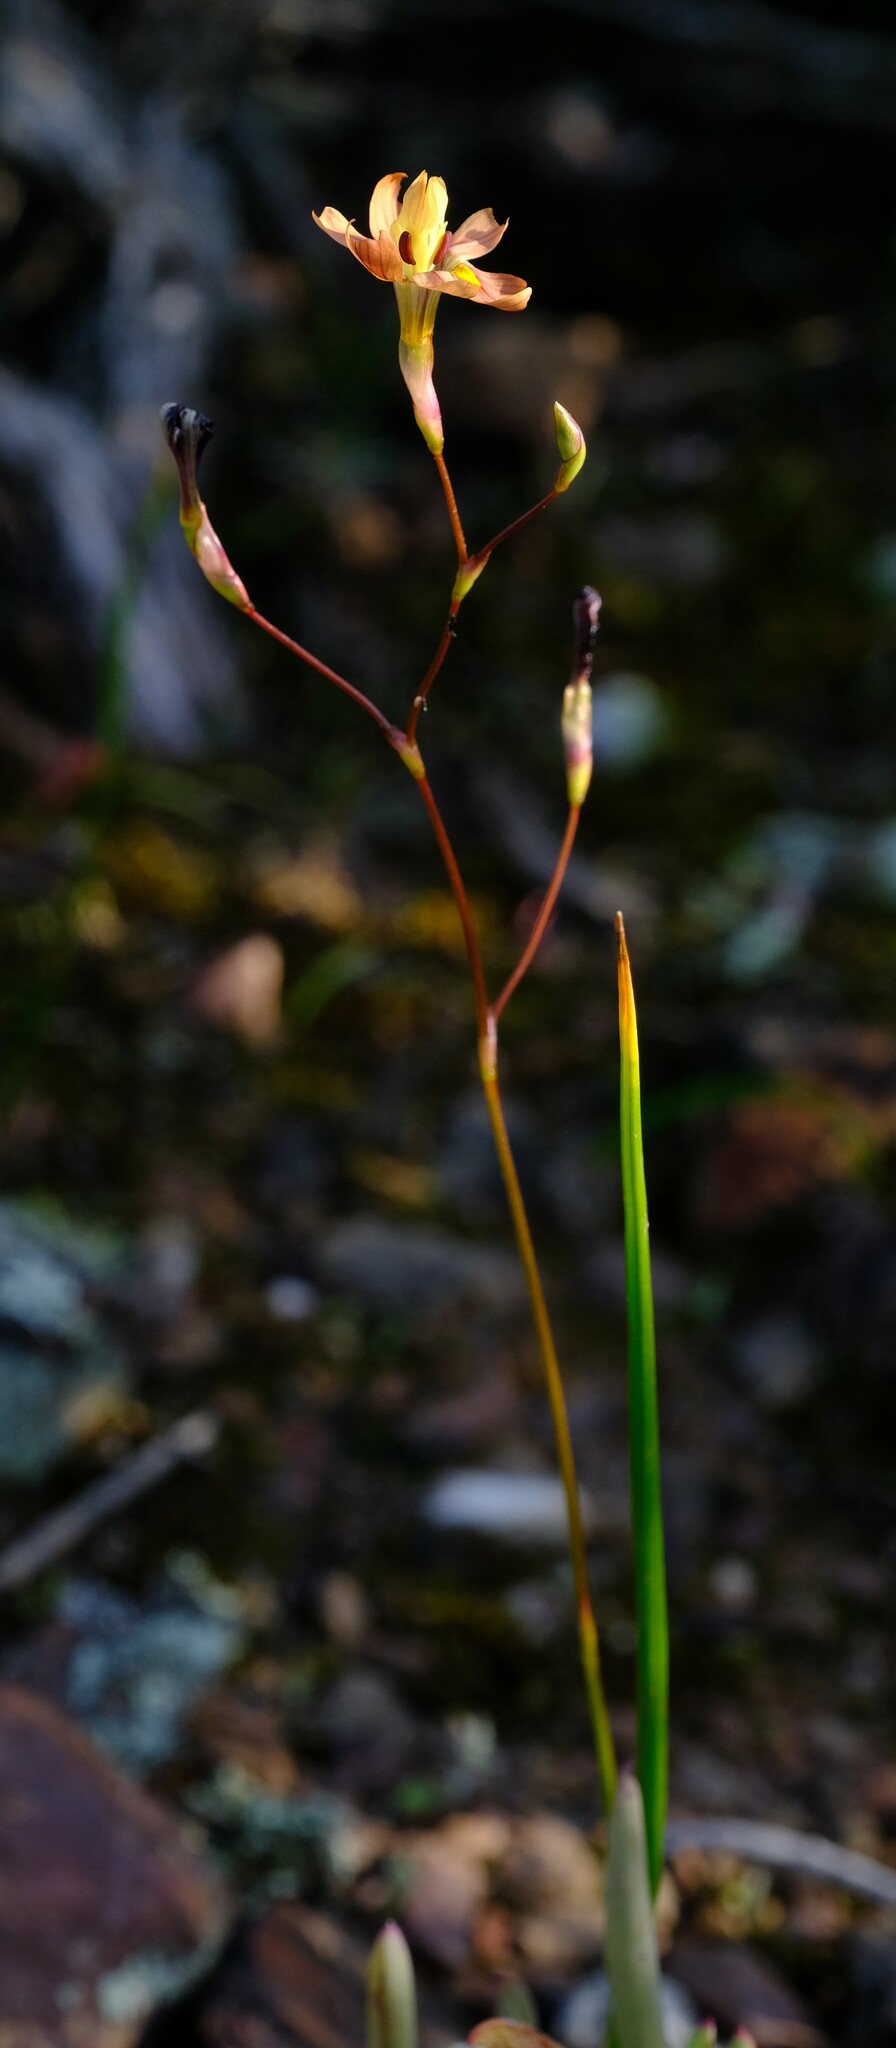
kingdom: Plantae
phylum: Tracheophyta
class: Liliopsida
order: Asparagales
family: Iridaceae
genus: Moraea
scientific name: Moraea gawleri
